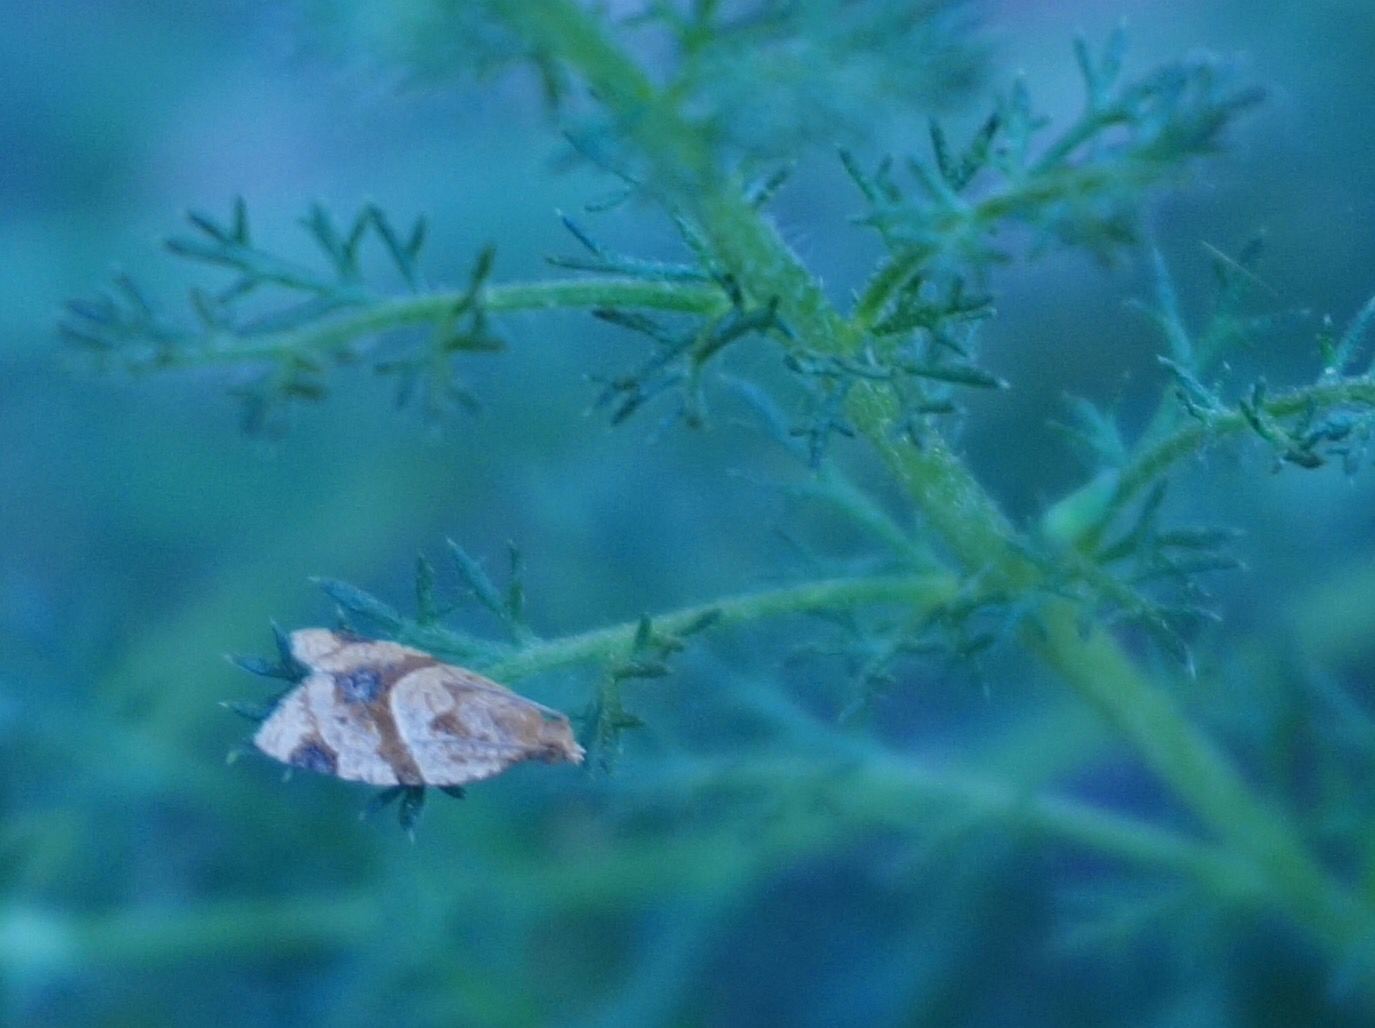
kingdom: Animalia
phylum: Arthropoda
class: Insecta
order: Lepidoptera
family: Tortricidae
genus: Clepsis
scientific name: Clepsis peritana
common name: Garden tortrix
